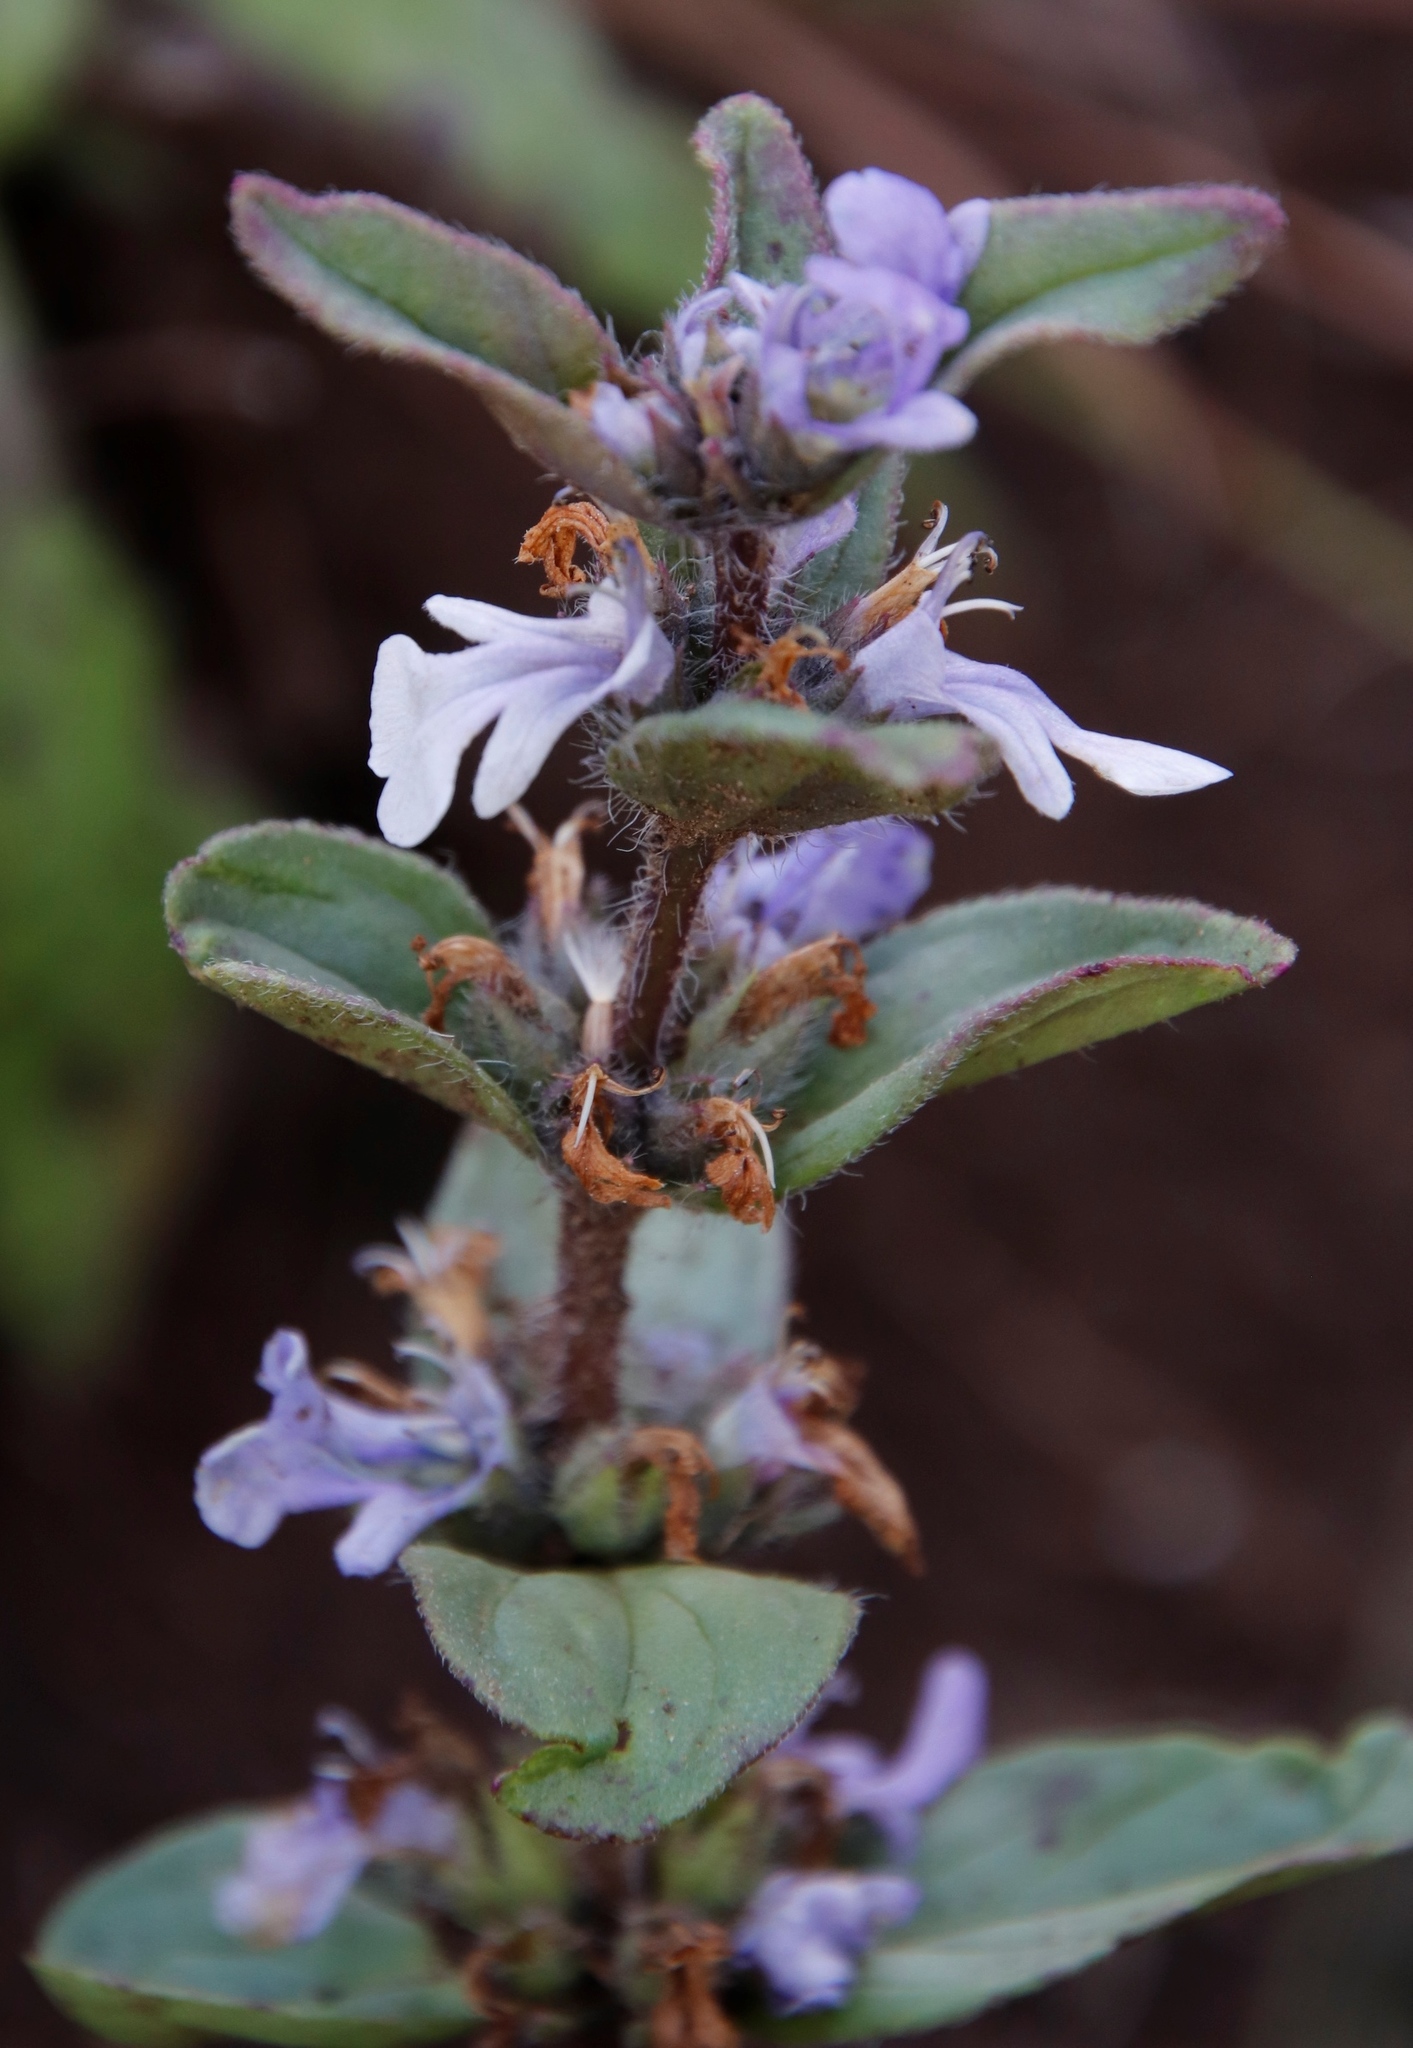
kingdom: Plantae
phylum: Tracheophyta
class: Magnoliopsida
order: Lamiales
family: Lamiaceae
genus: Ajuga
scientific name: Ajuga ophrydis
